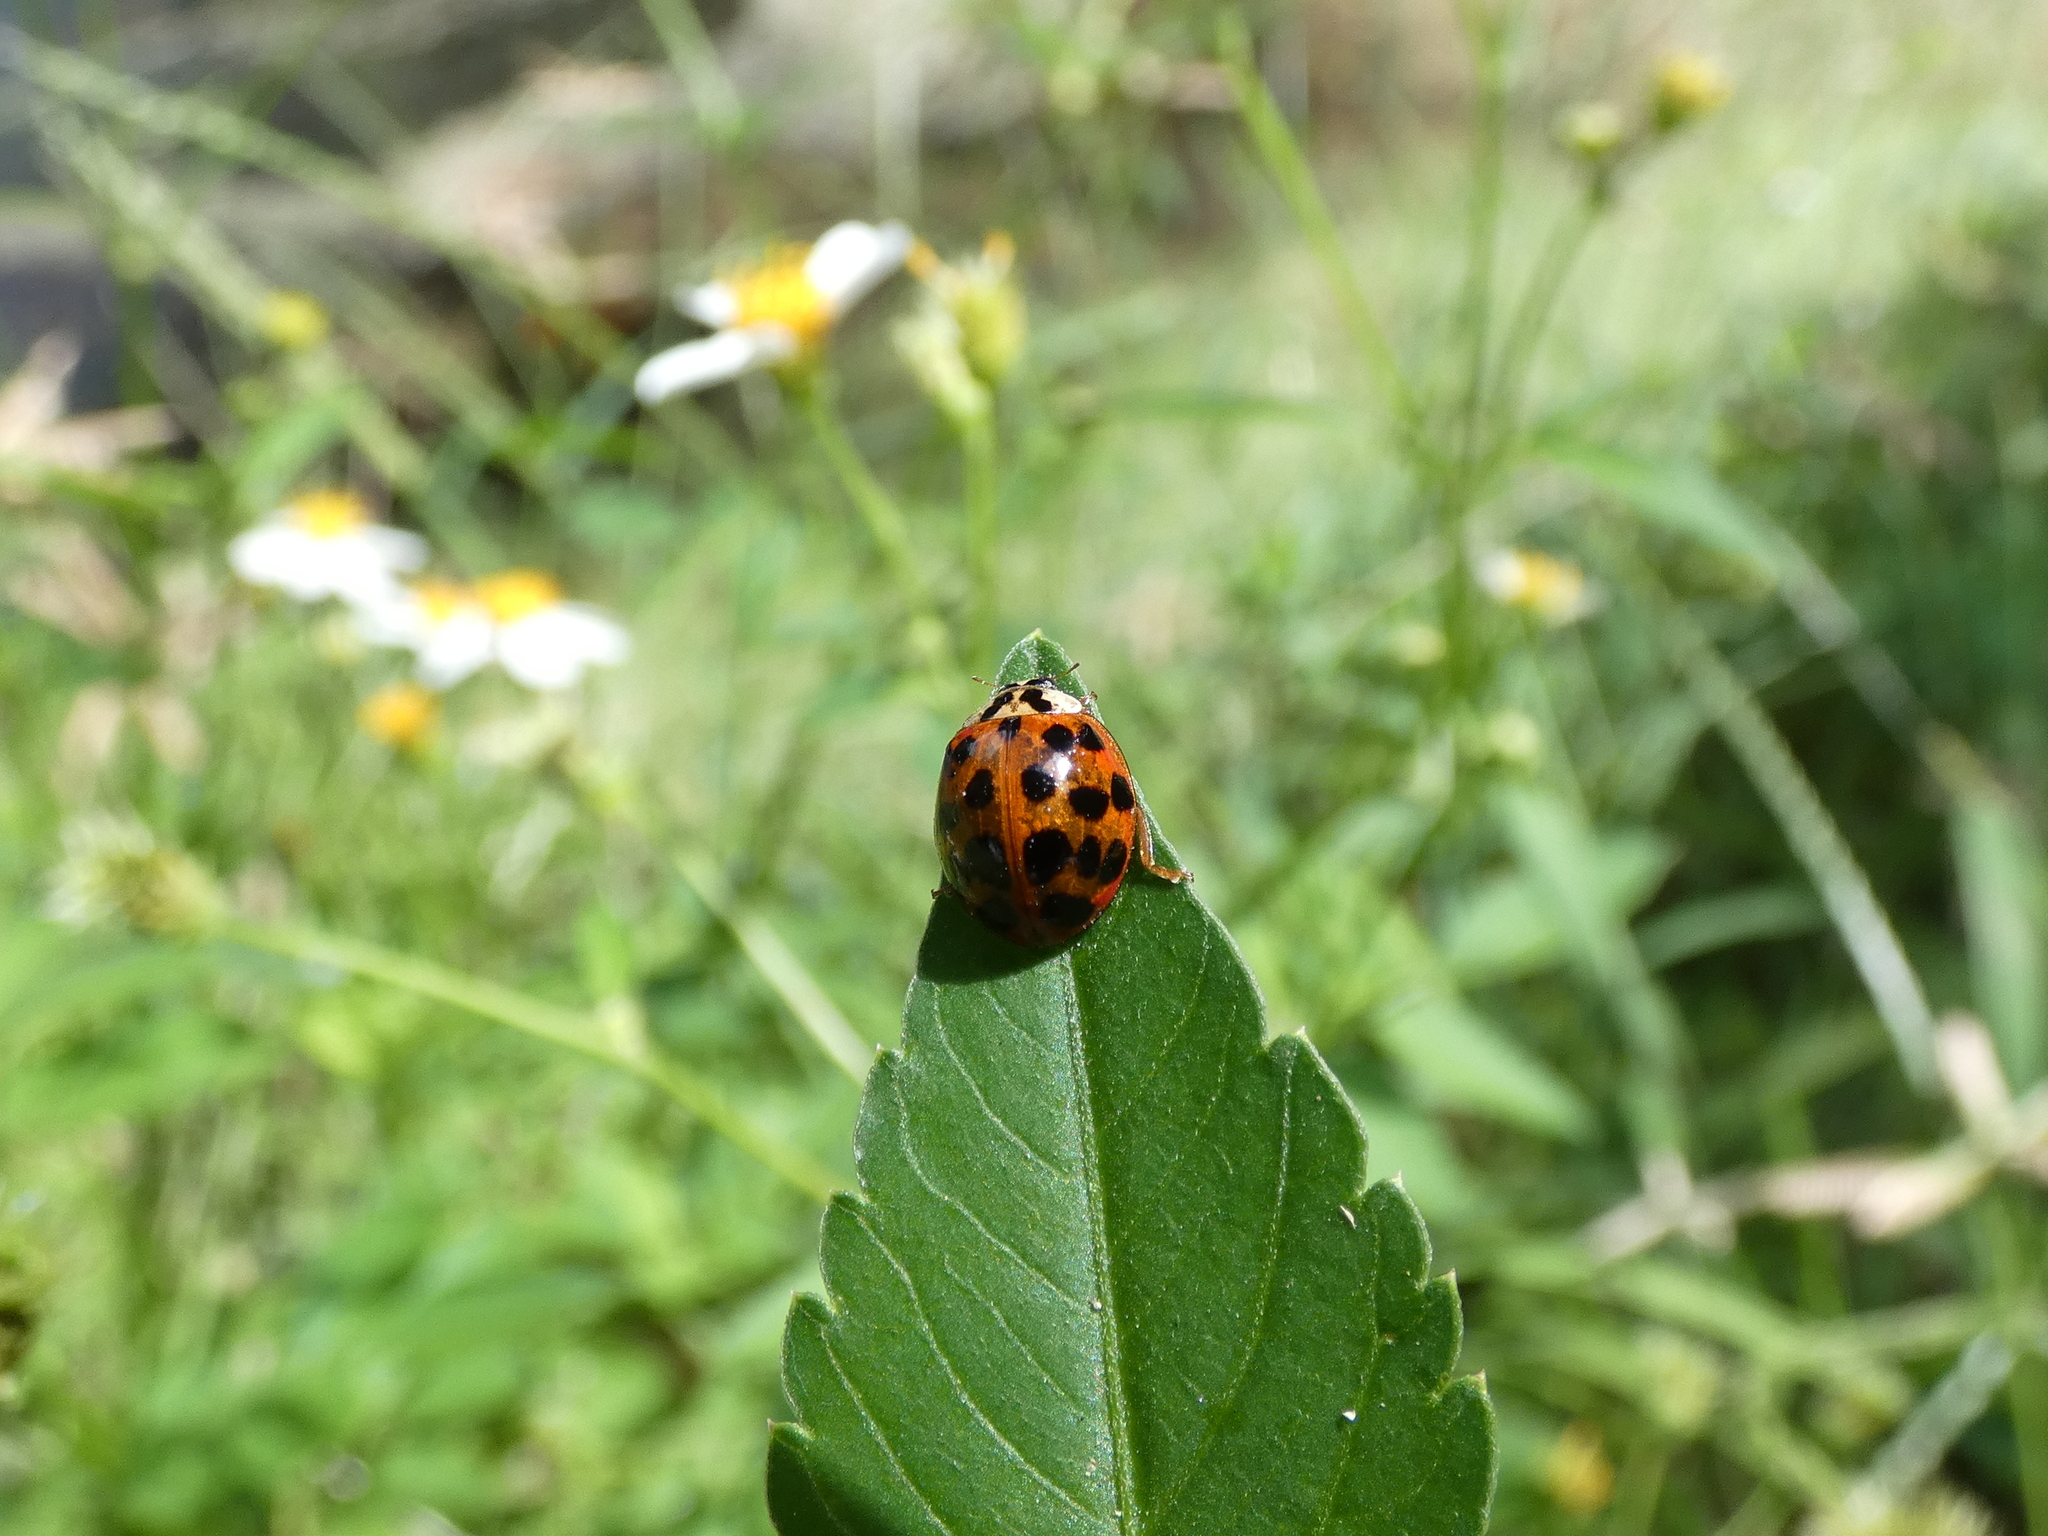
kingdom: Animalia
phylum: Arthropoda
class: Insecta
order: Coleoptera
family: Coccinellidae
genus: Harmonia
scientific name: Harmonia axyridis
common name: Harlequin ladybird
